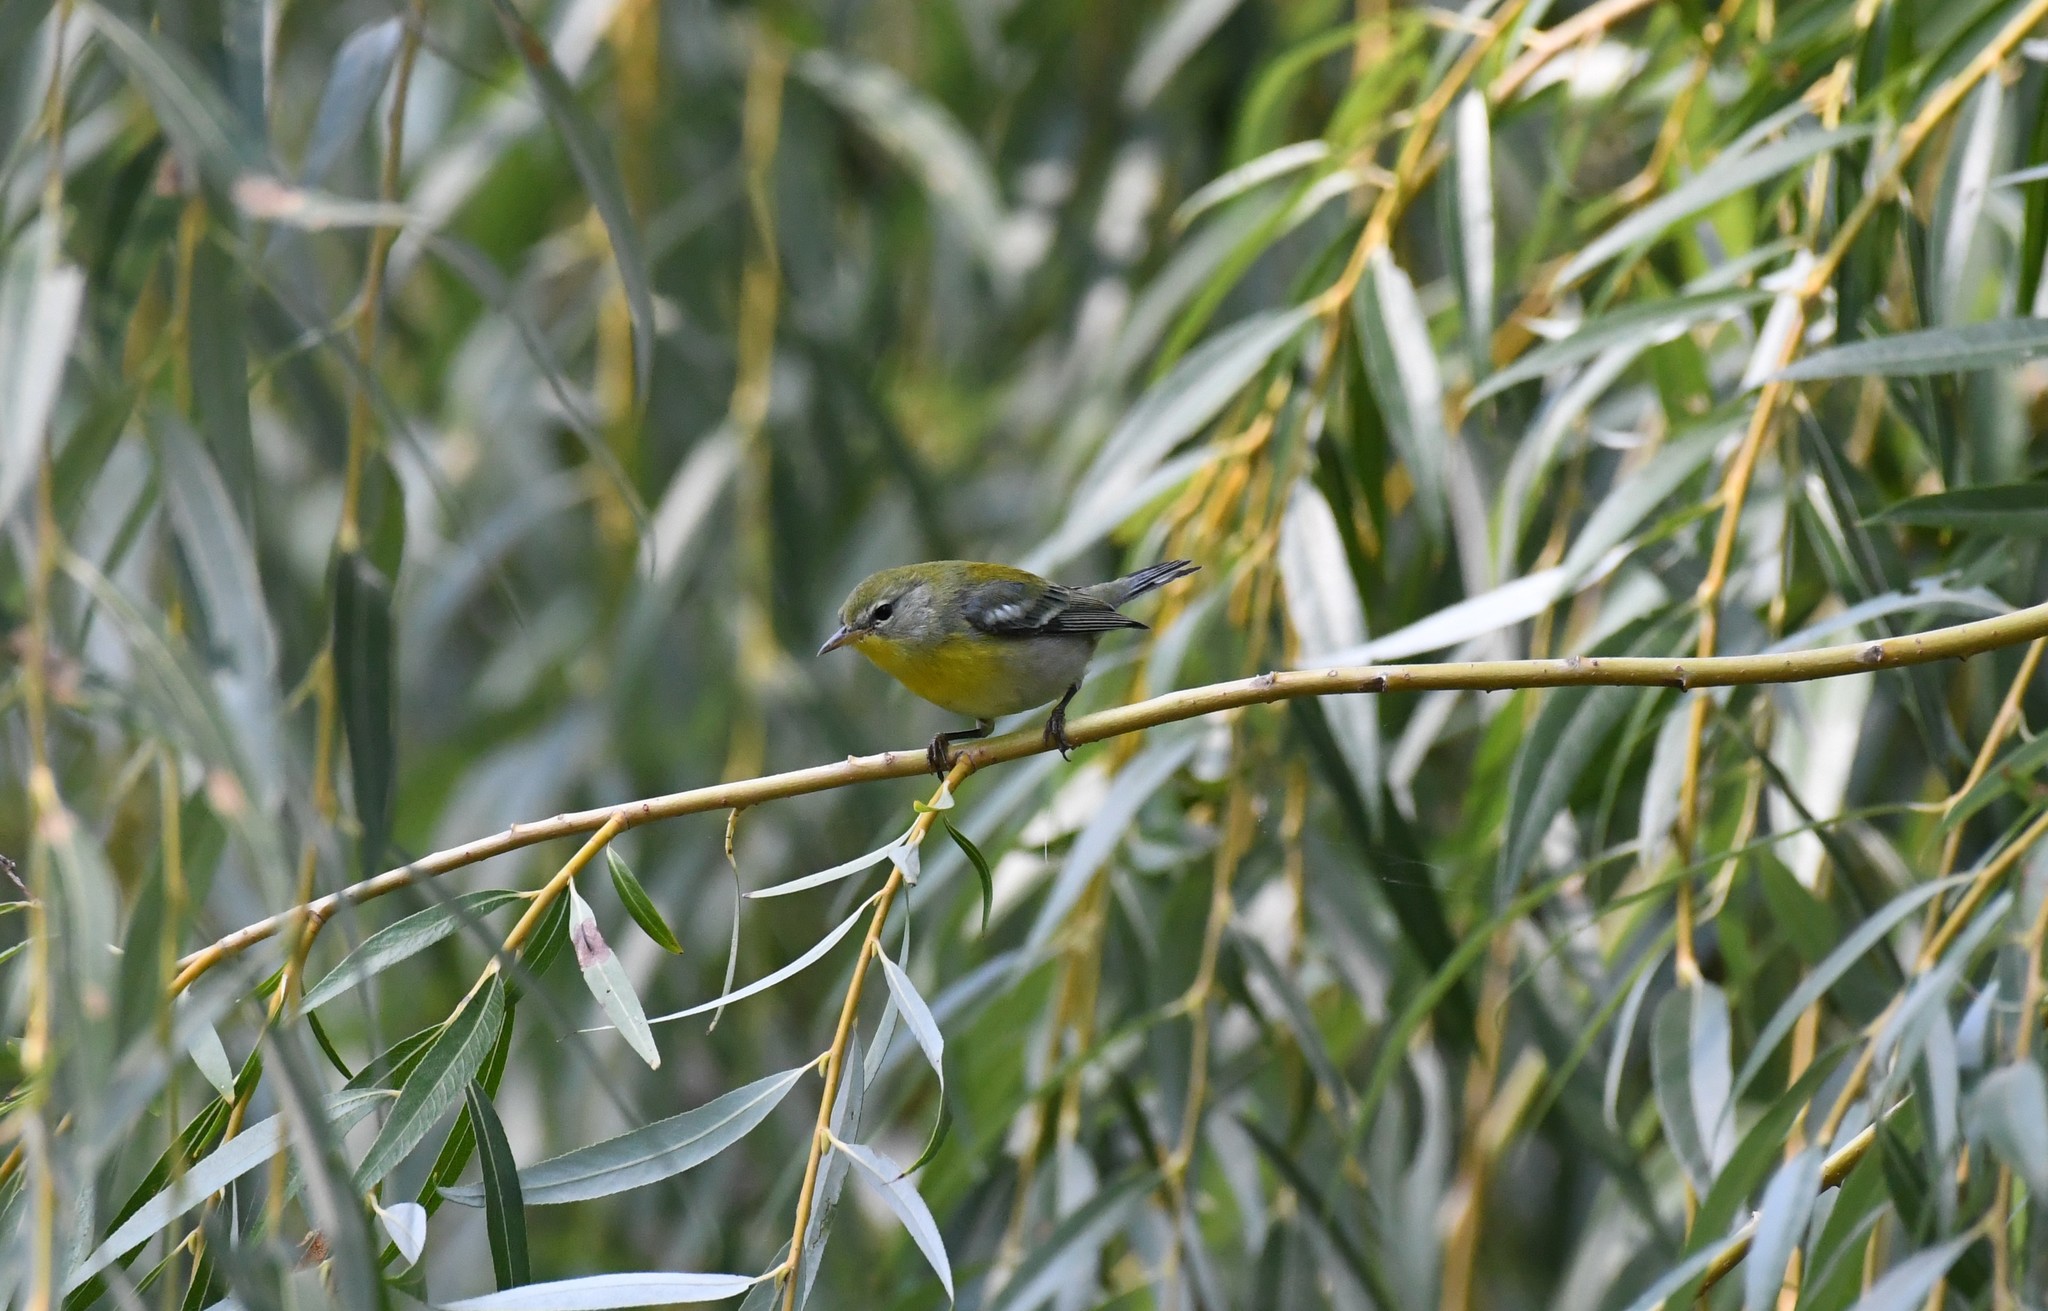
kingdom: Animalia
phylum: Chordata
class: Aves
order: Passeriformes
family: Parulidae
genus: Setophaga
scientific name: Setophaga americana
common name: Northern parula
